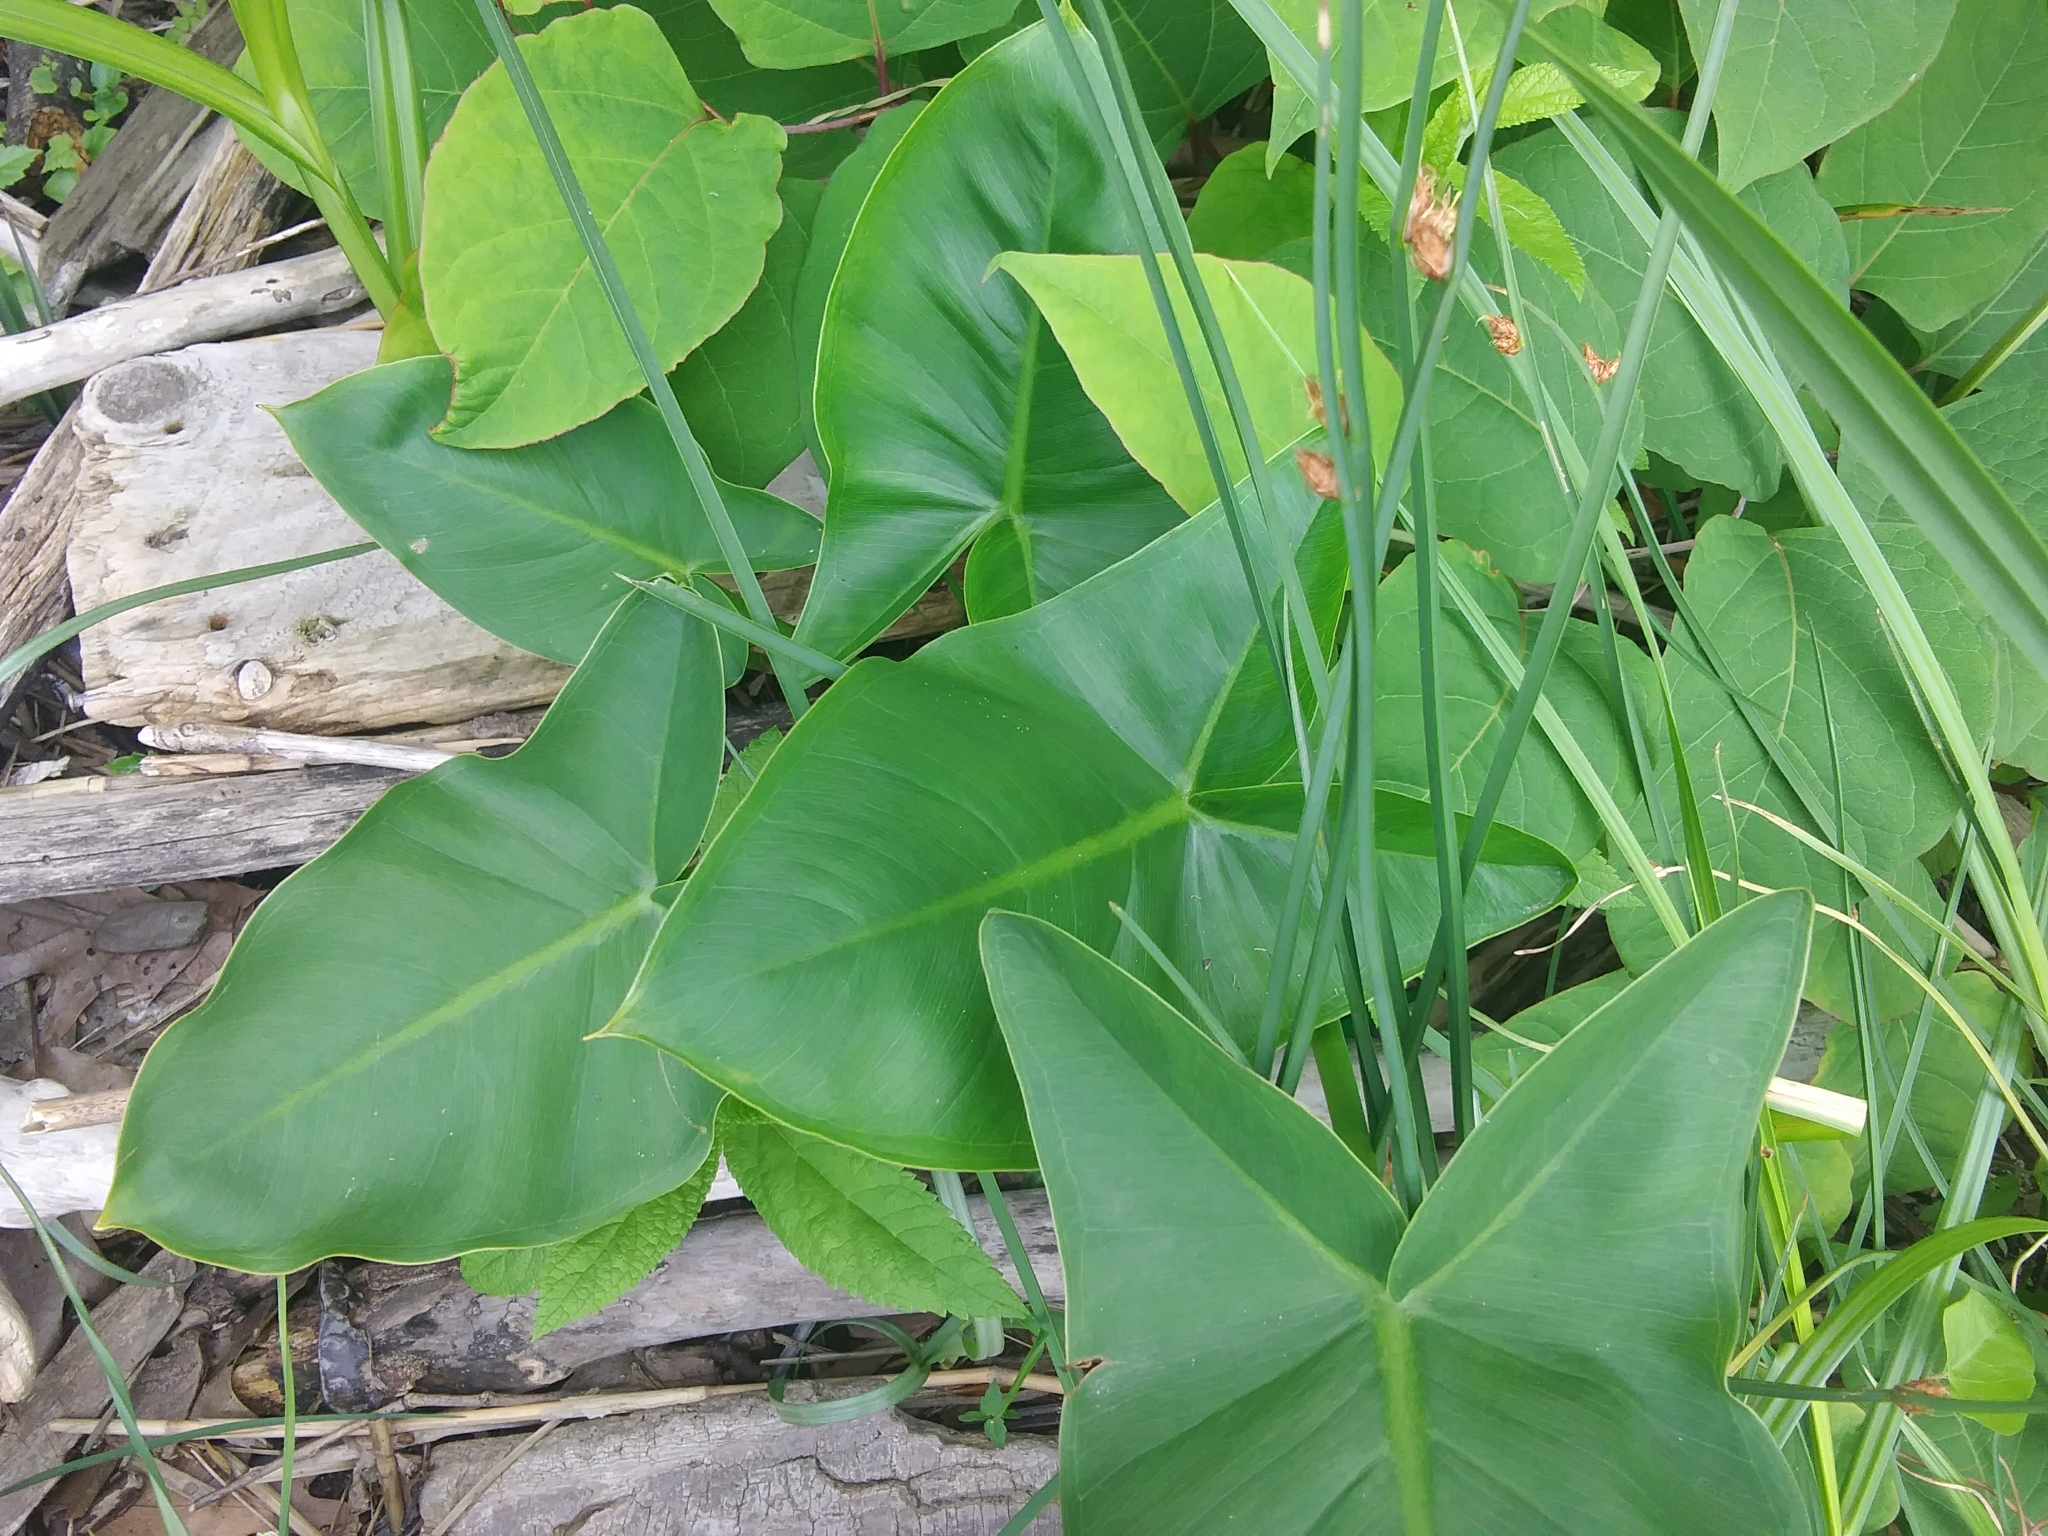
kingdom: Plantae
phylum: Tracheophyta
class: Liliopsida
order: Alismatales
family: Araceae
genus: Peltandra
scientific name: Peltandra virginica
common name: Arrow arum
